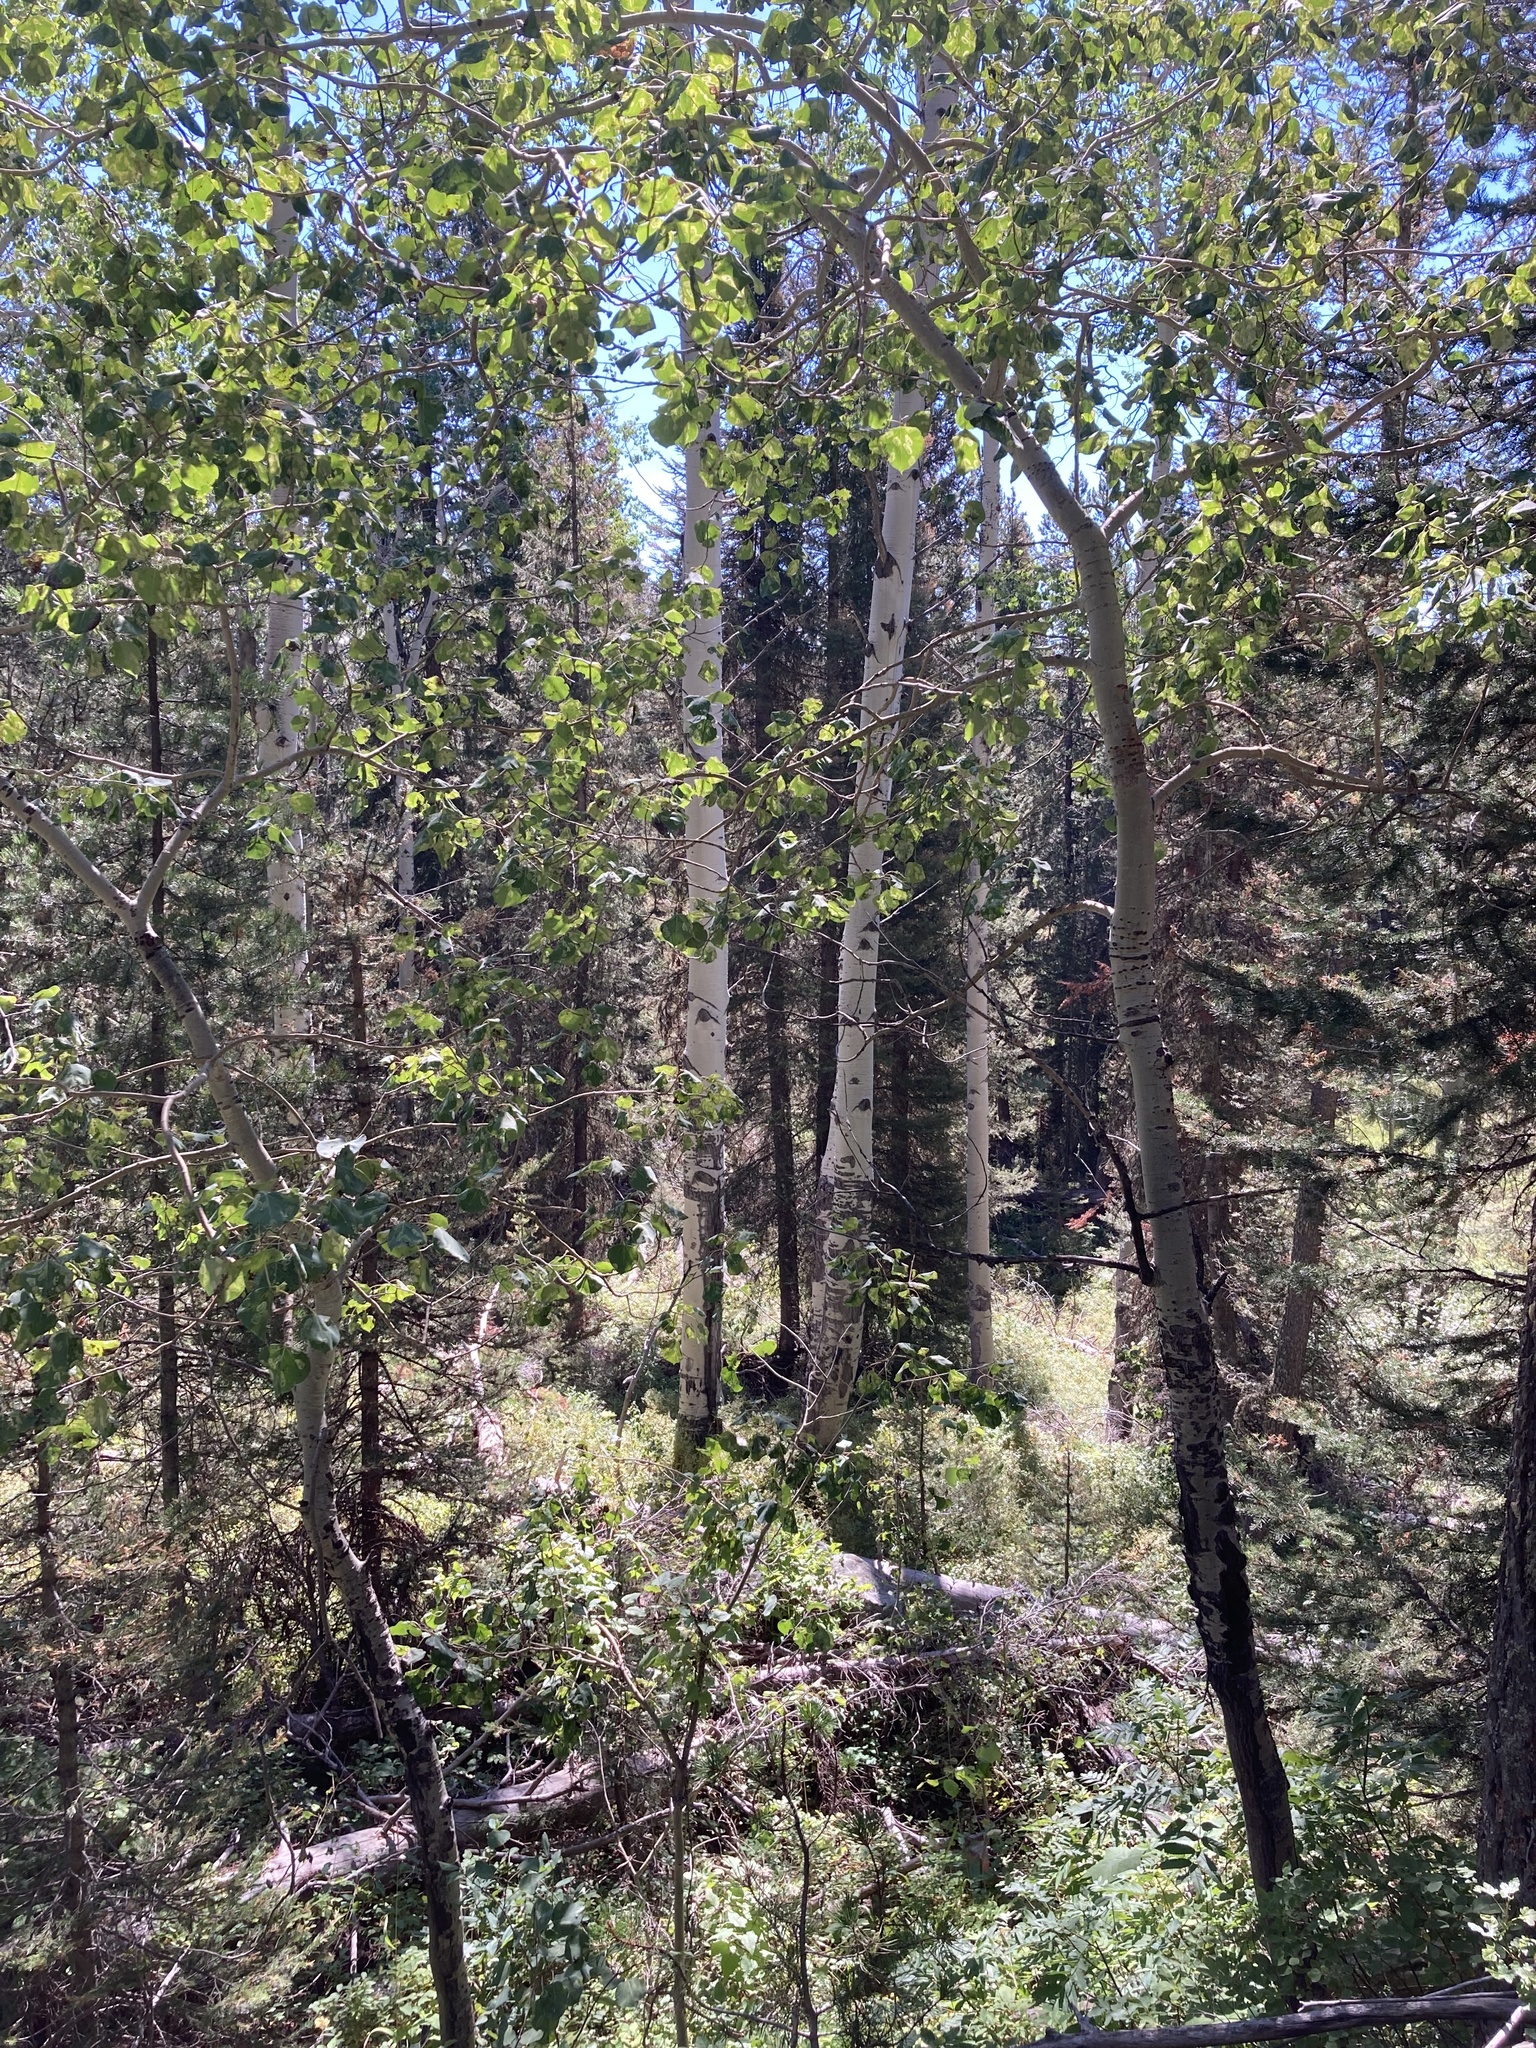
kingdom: Plantae
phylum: Tracheophyta
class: Magnoliopsida
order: Malpighiales
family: Salicaceae
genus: Populus
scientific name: Populus tremuloides
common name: Quaking aspen
